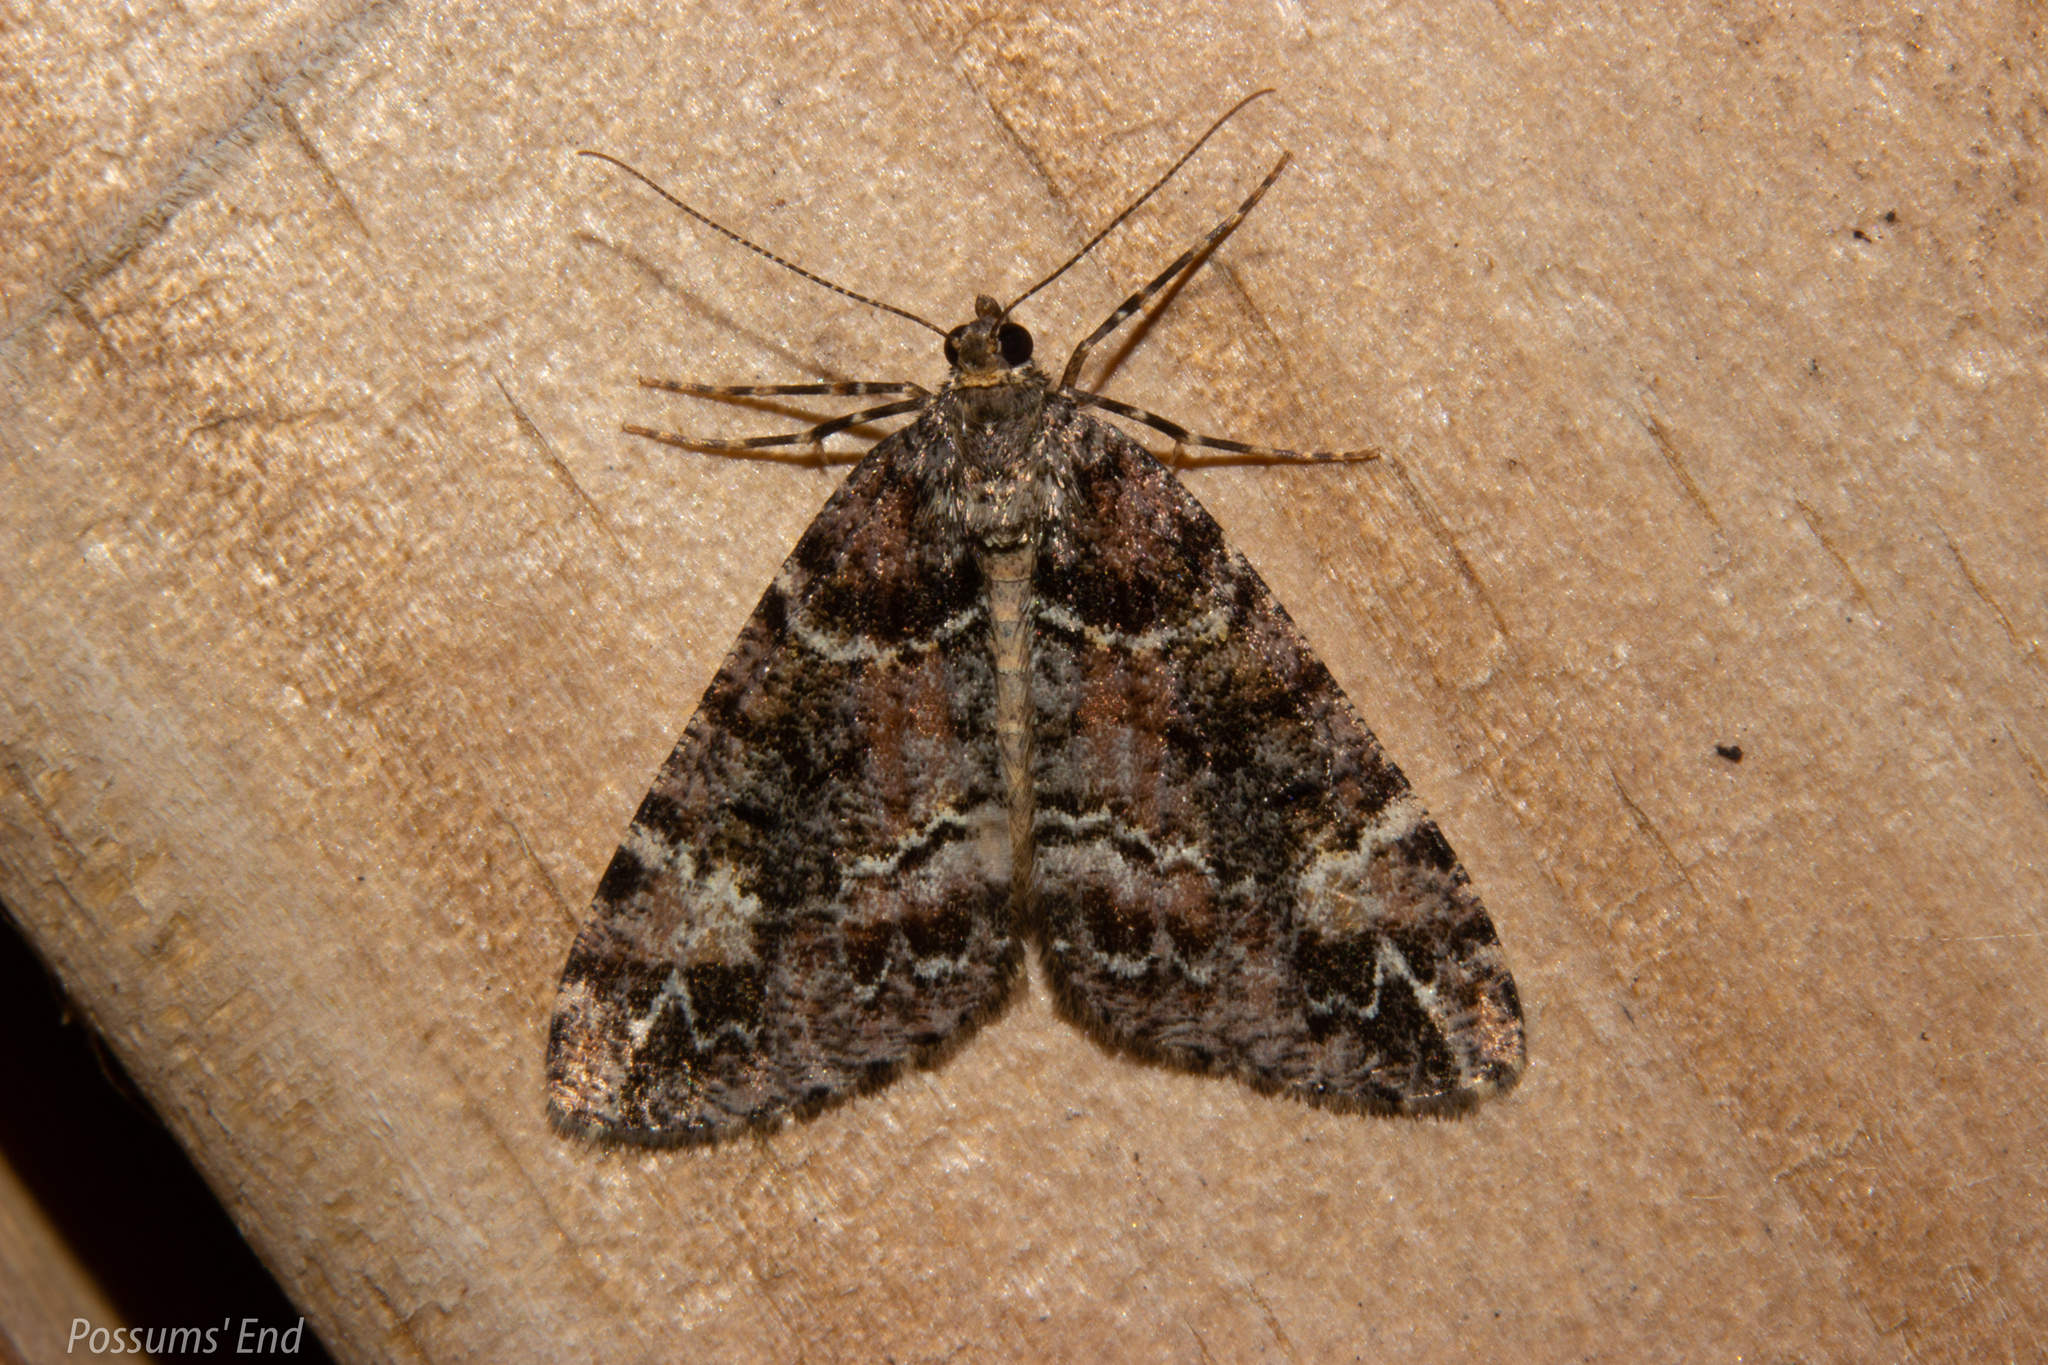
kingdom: Animalia
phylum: Arthropoda
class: Insecta
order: Lepidoptera
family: Geometridae
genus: Pseudocoremia
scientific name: Pseudocoremia productata
